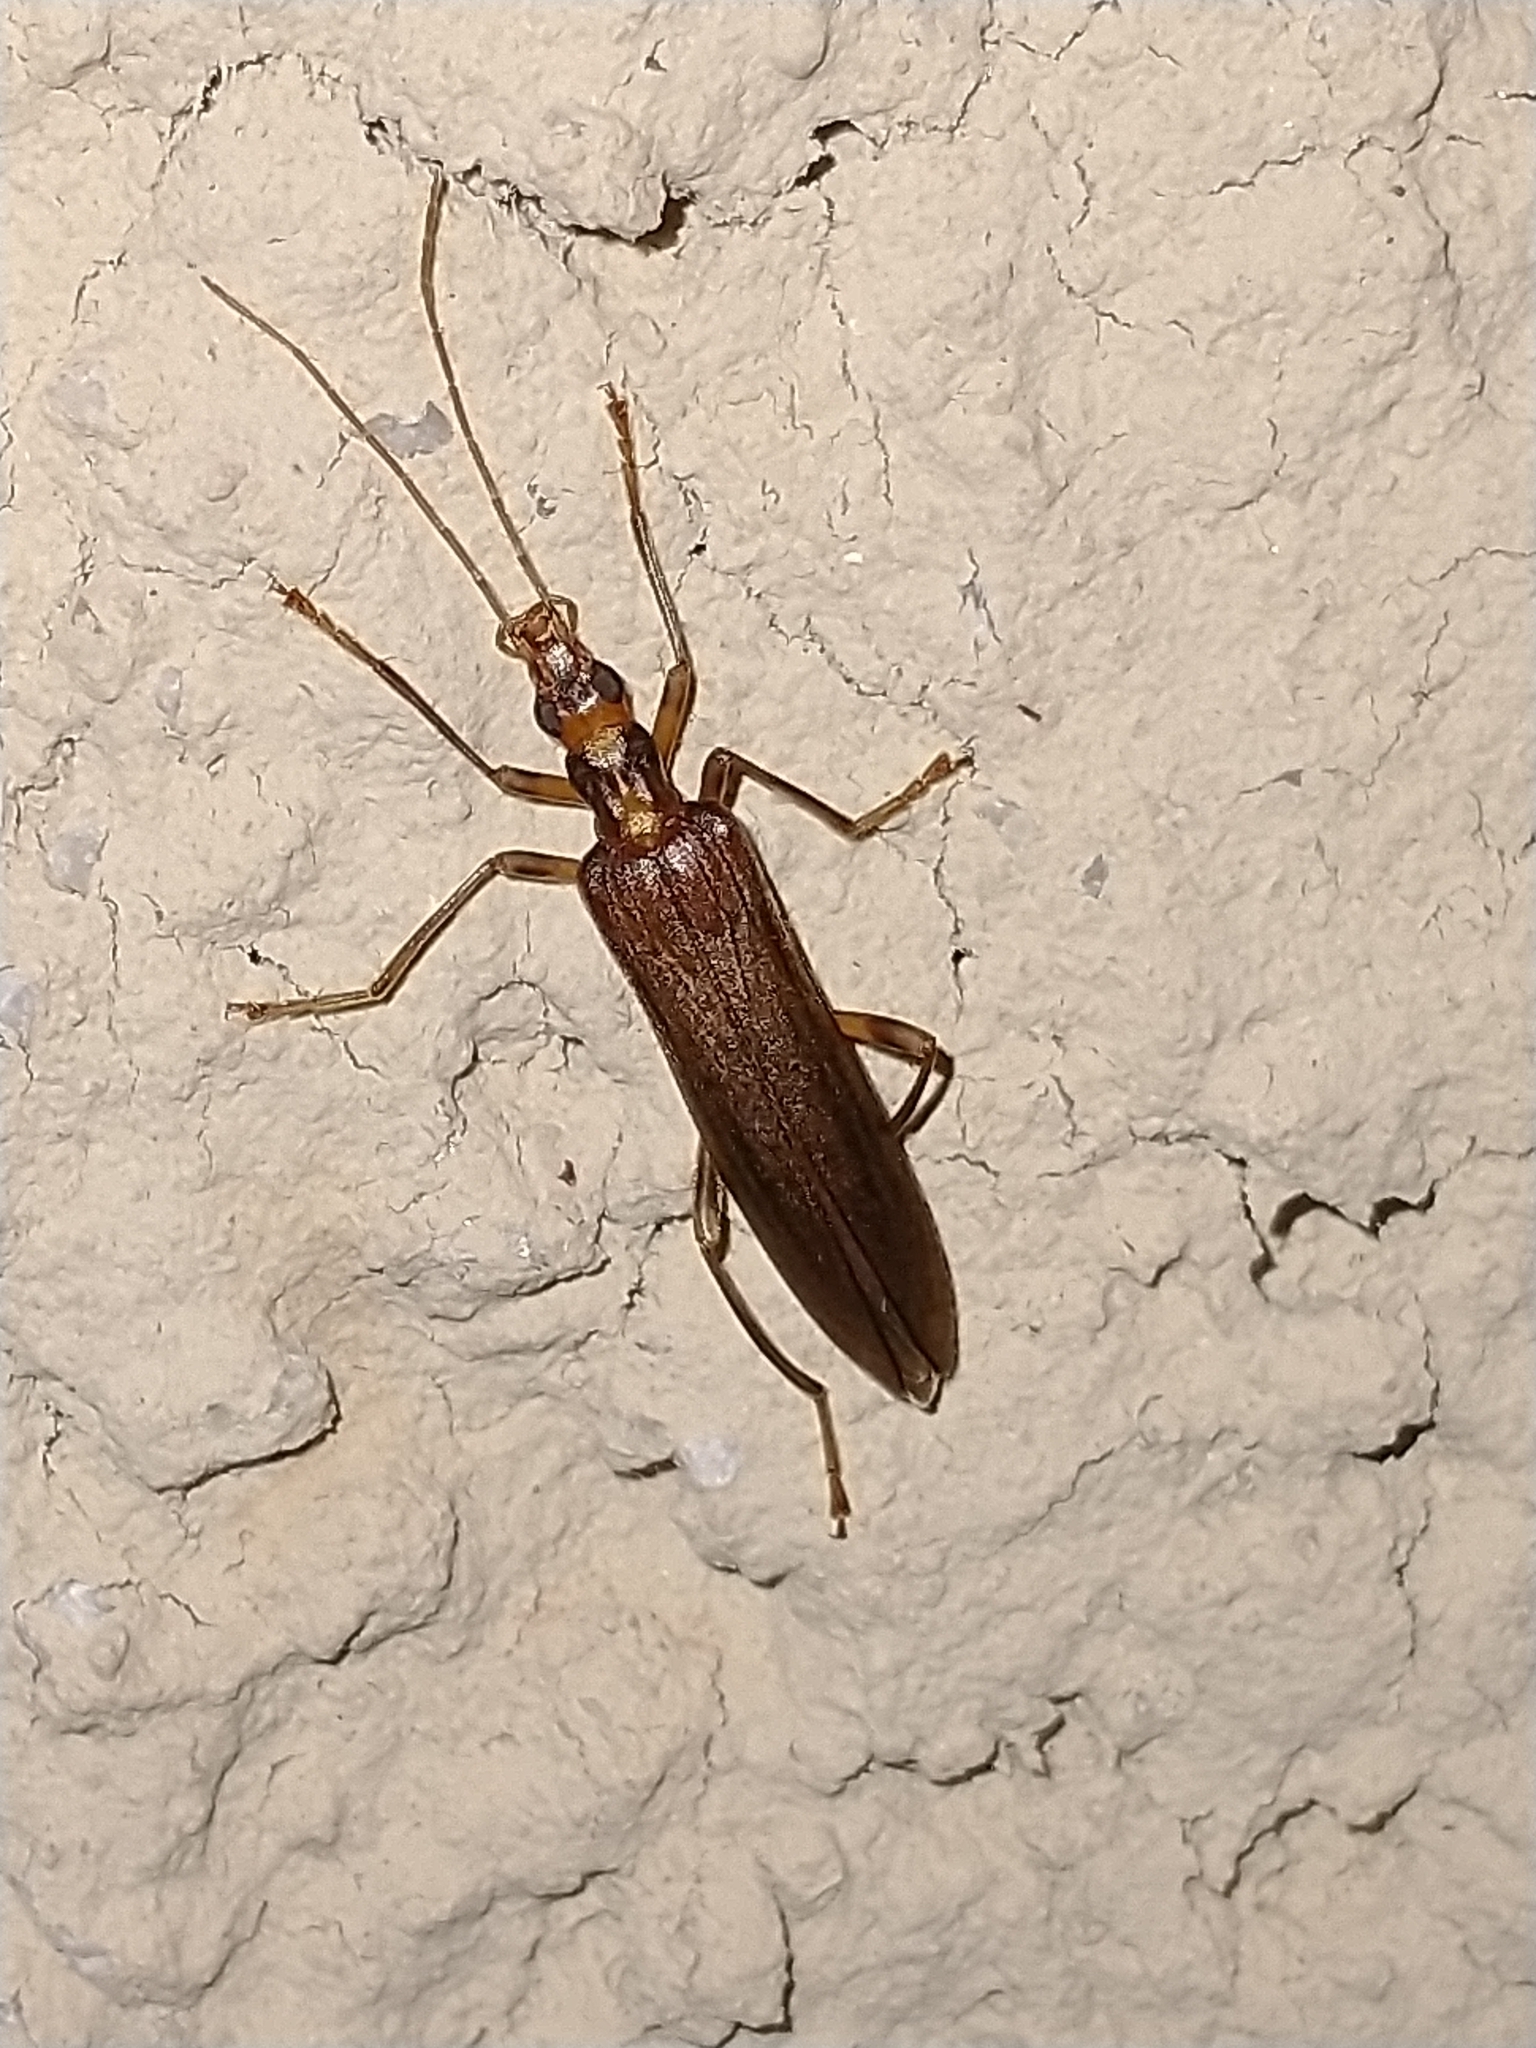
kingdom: Animalia
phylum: Arthropoda
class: Insecta
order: Coleoptera
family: Oedemeridae
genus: Oedemera
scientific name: Oedemera femoralis
